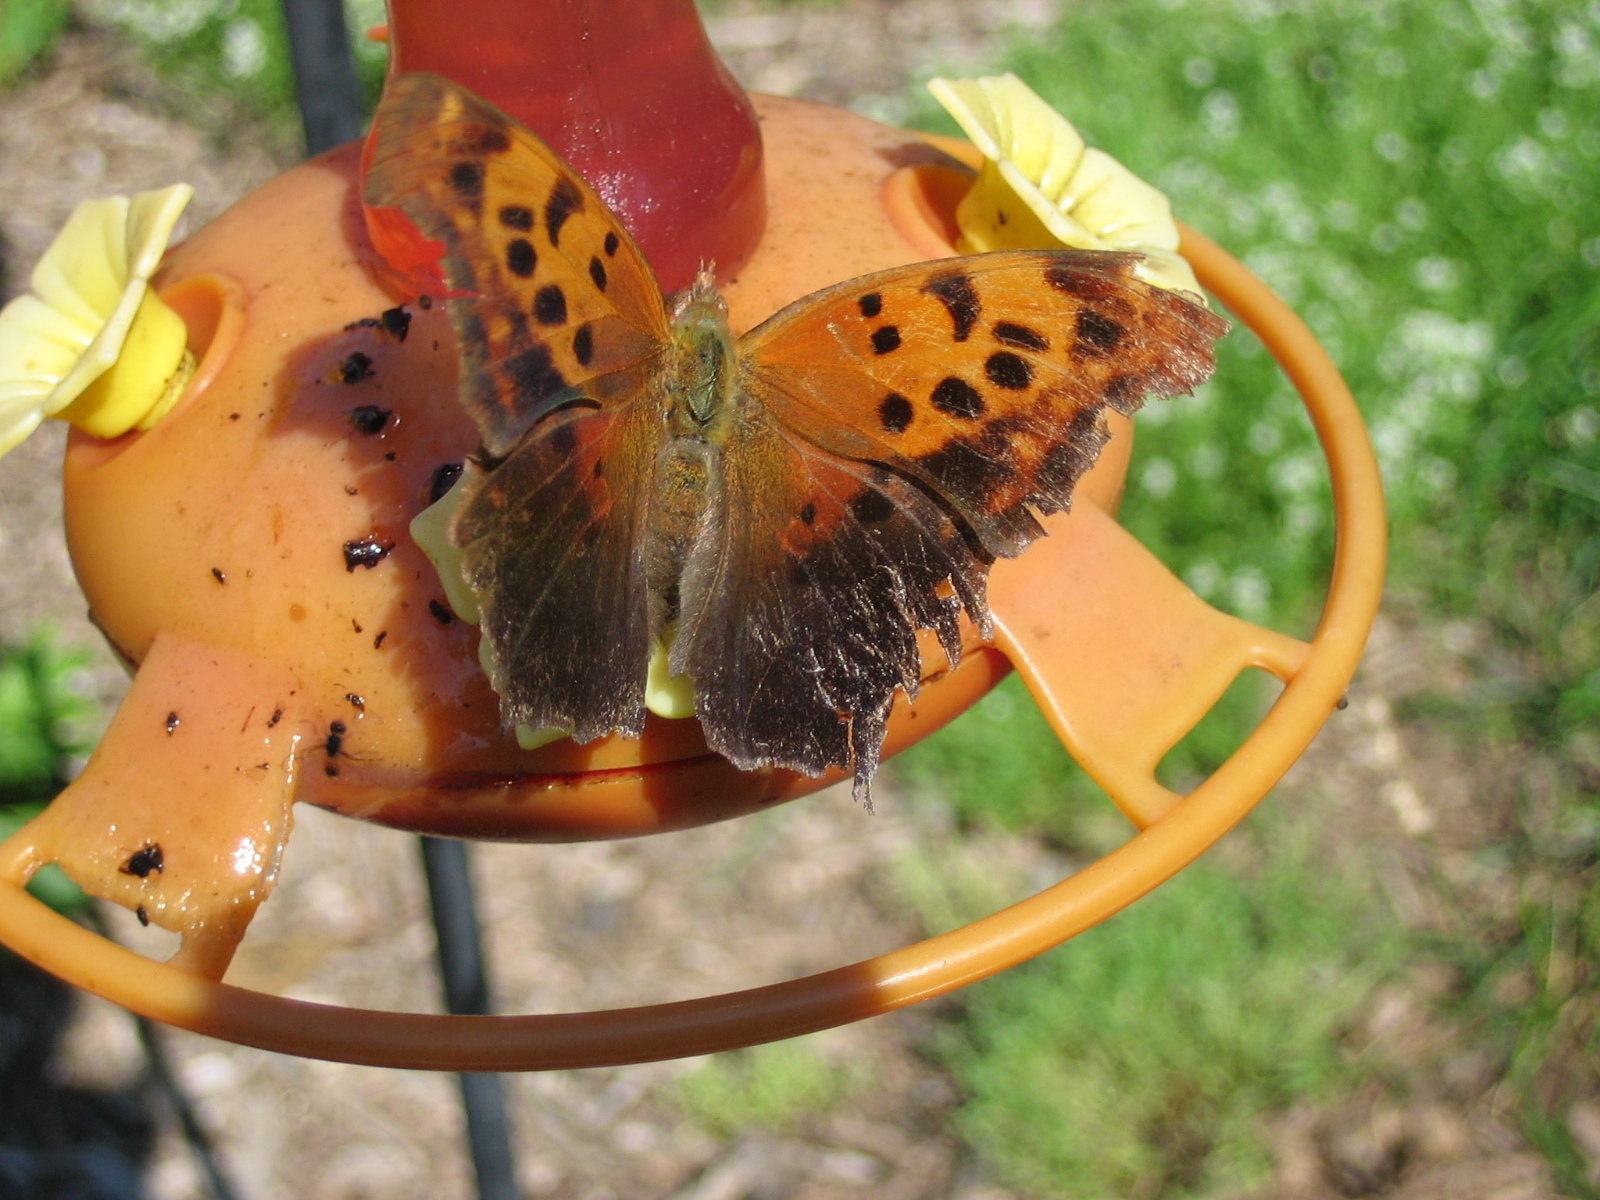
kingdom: Animalia
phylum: Arthropoda
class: Insecta
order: Lepidoptera
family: Nymphalidae
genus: Polygonia
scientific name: Polygonia interrogationis
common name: Question mark
